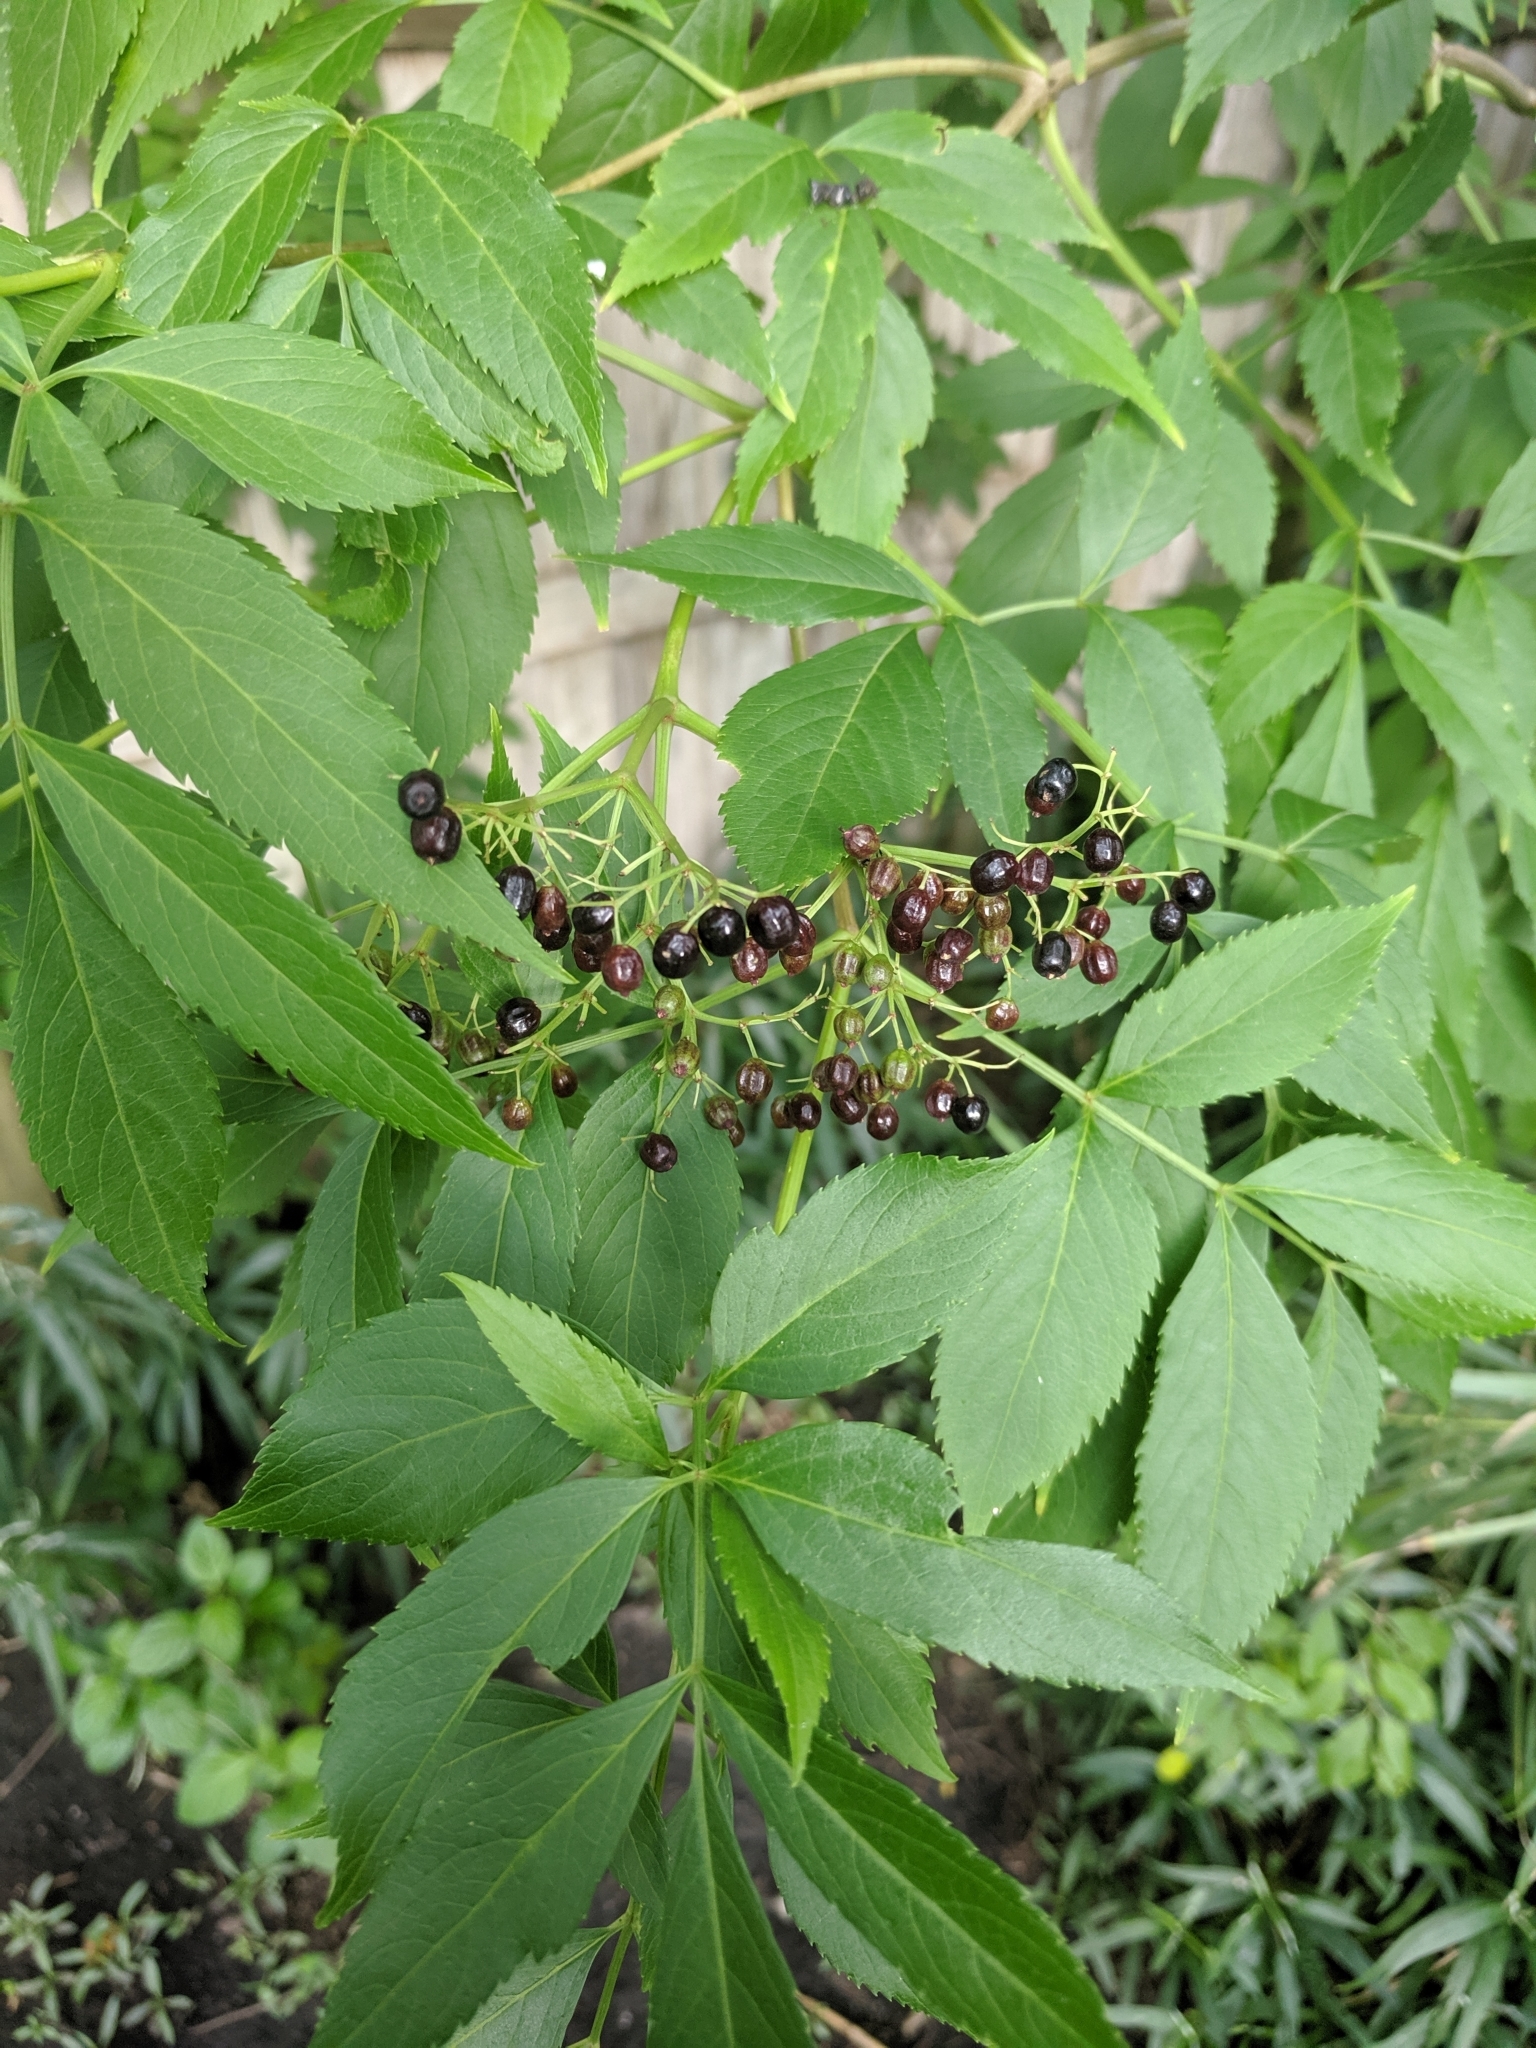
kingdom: Plantae
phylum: Tracheophyta
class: Magnoliopsida
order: Dipsacales
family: Viburnaceae
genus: Sambucus
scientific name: Sambucus canadensis
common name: American elder
